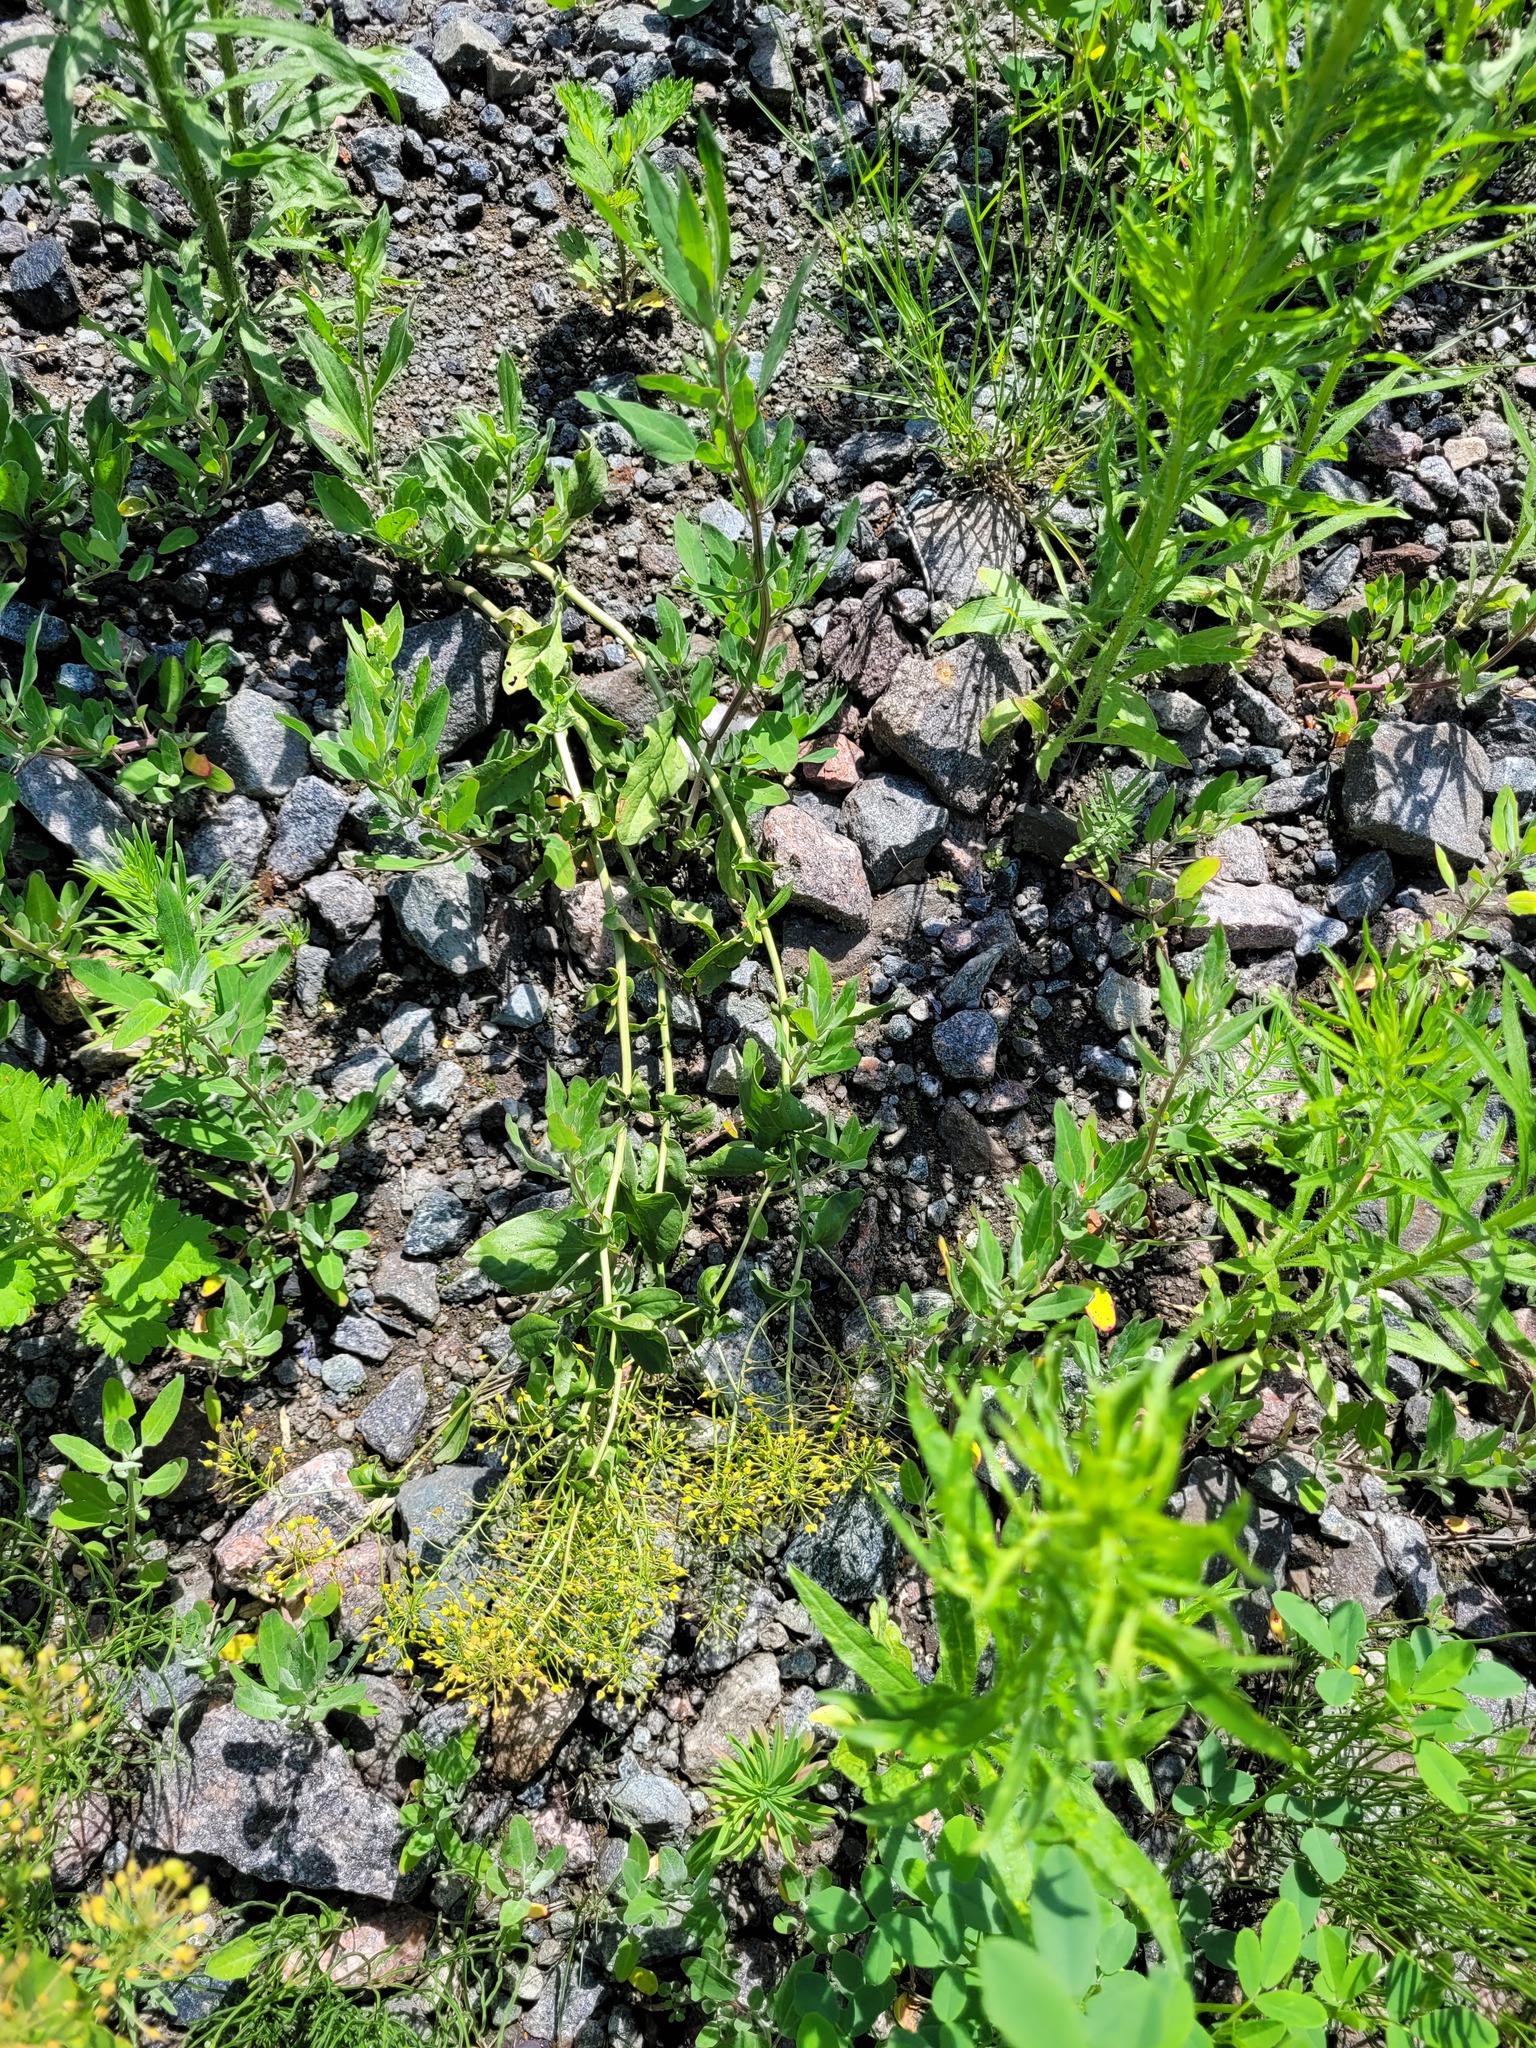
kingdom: Plantae
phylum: Tracheophyta
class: Magnoliopsida
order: Brassicales
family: Brassicaceae
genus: Lepidium
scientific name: Lepidium draba
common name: Hoary cress
